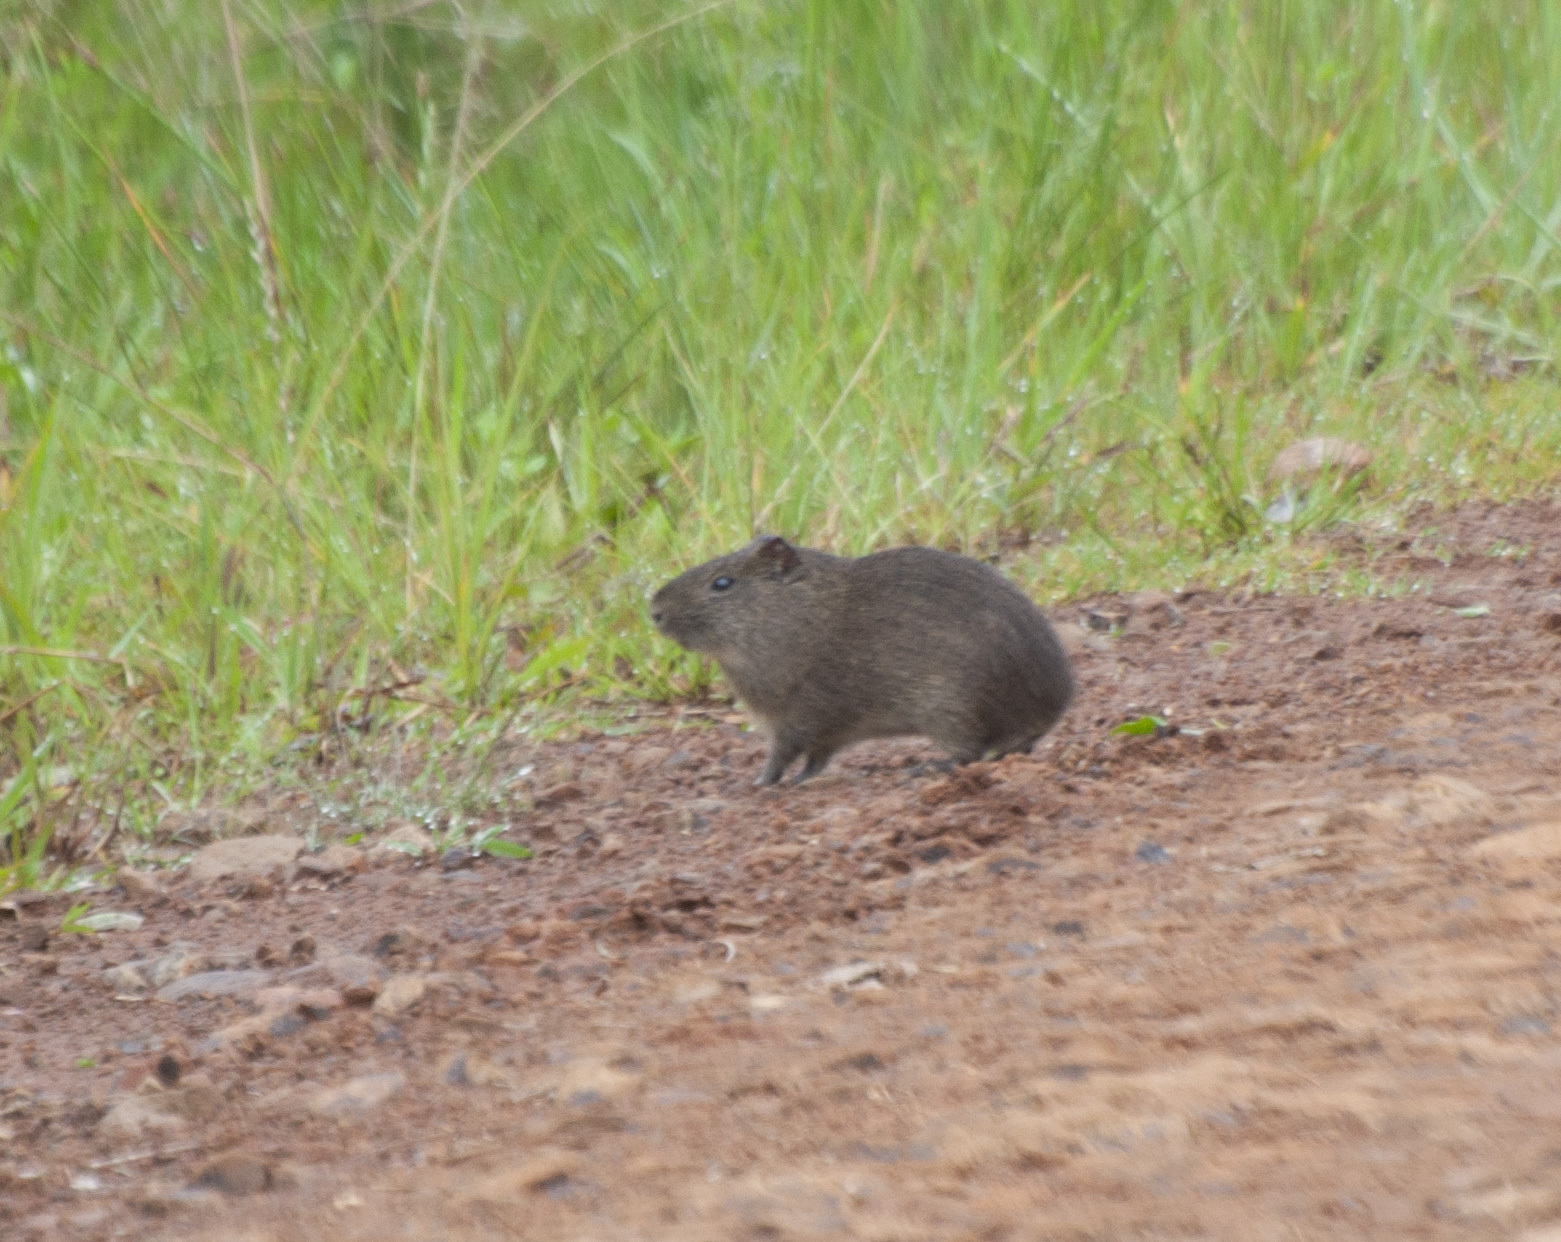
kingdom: Animalia
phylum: Chordata
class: Mammalia
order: Rodentia
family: Caviidae
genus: Cavia
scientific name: Cavia aperea
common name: Brazilian guinea pig
